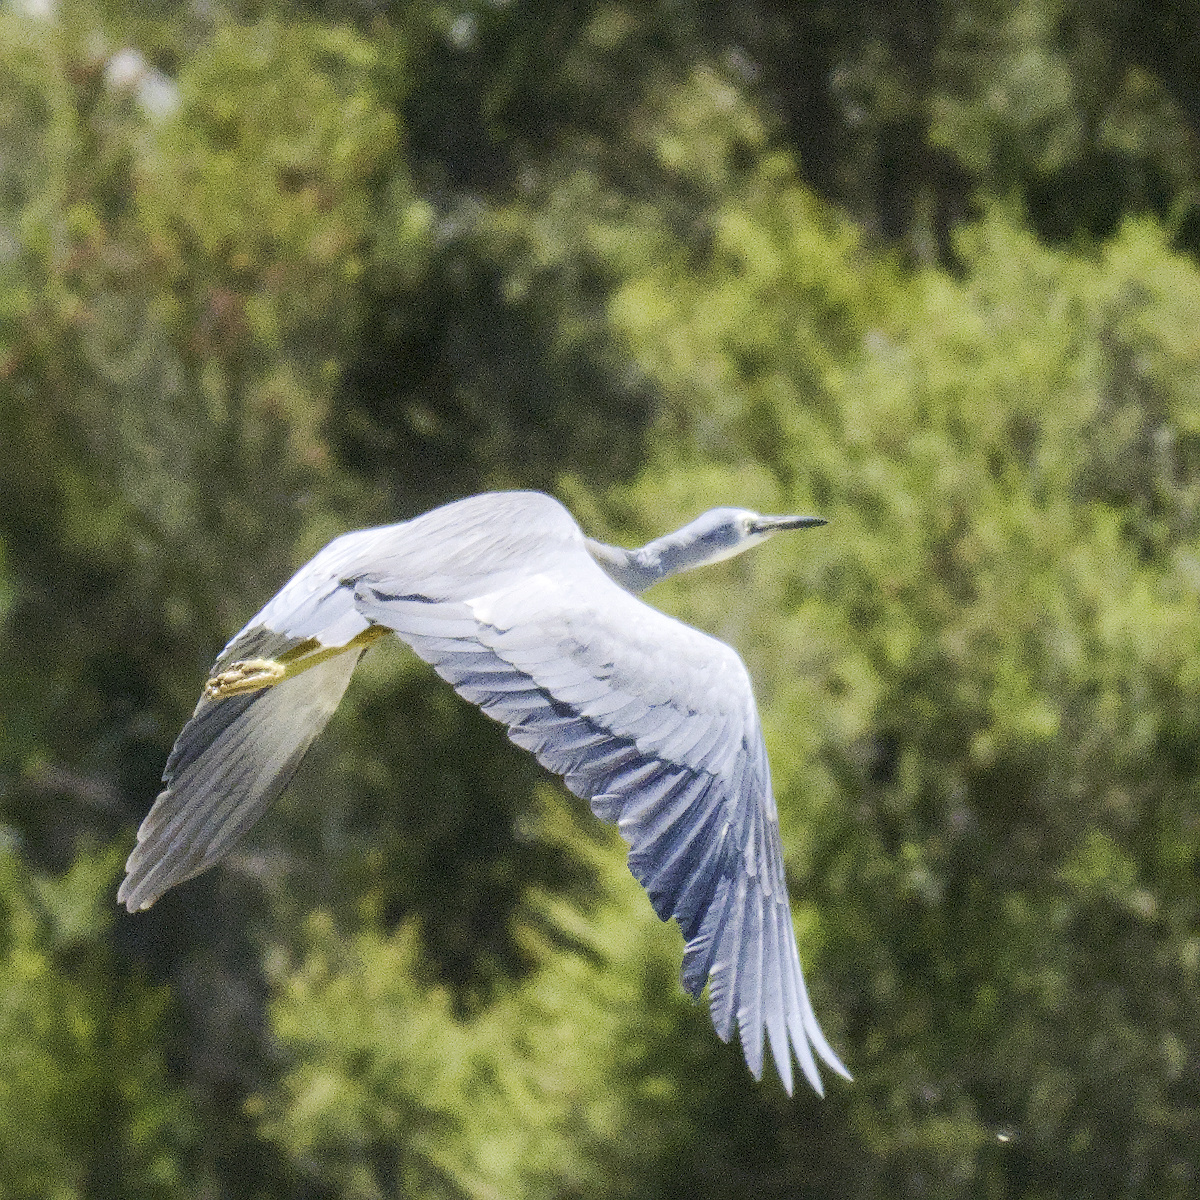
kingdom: Animalia
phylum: Chordata
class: Aves
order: Pelecaniformes
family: Ardeidae
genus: Egretta
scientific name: Egretta novaehollandiae
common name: White-faced heron
